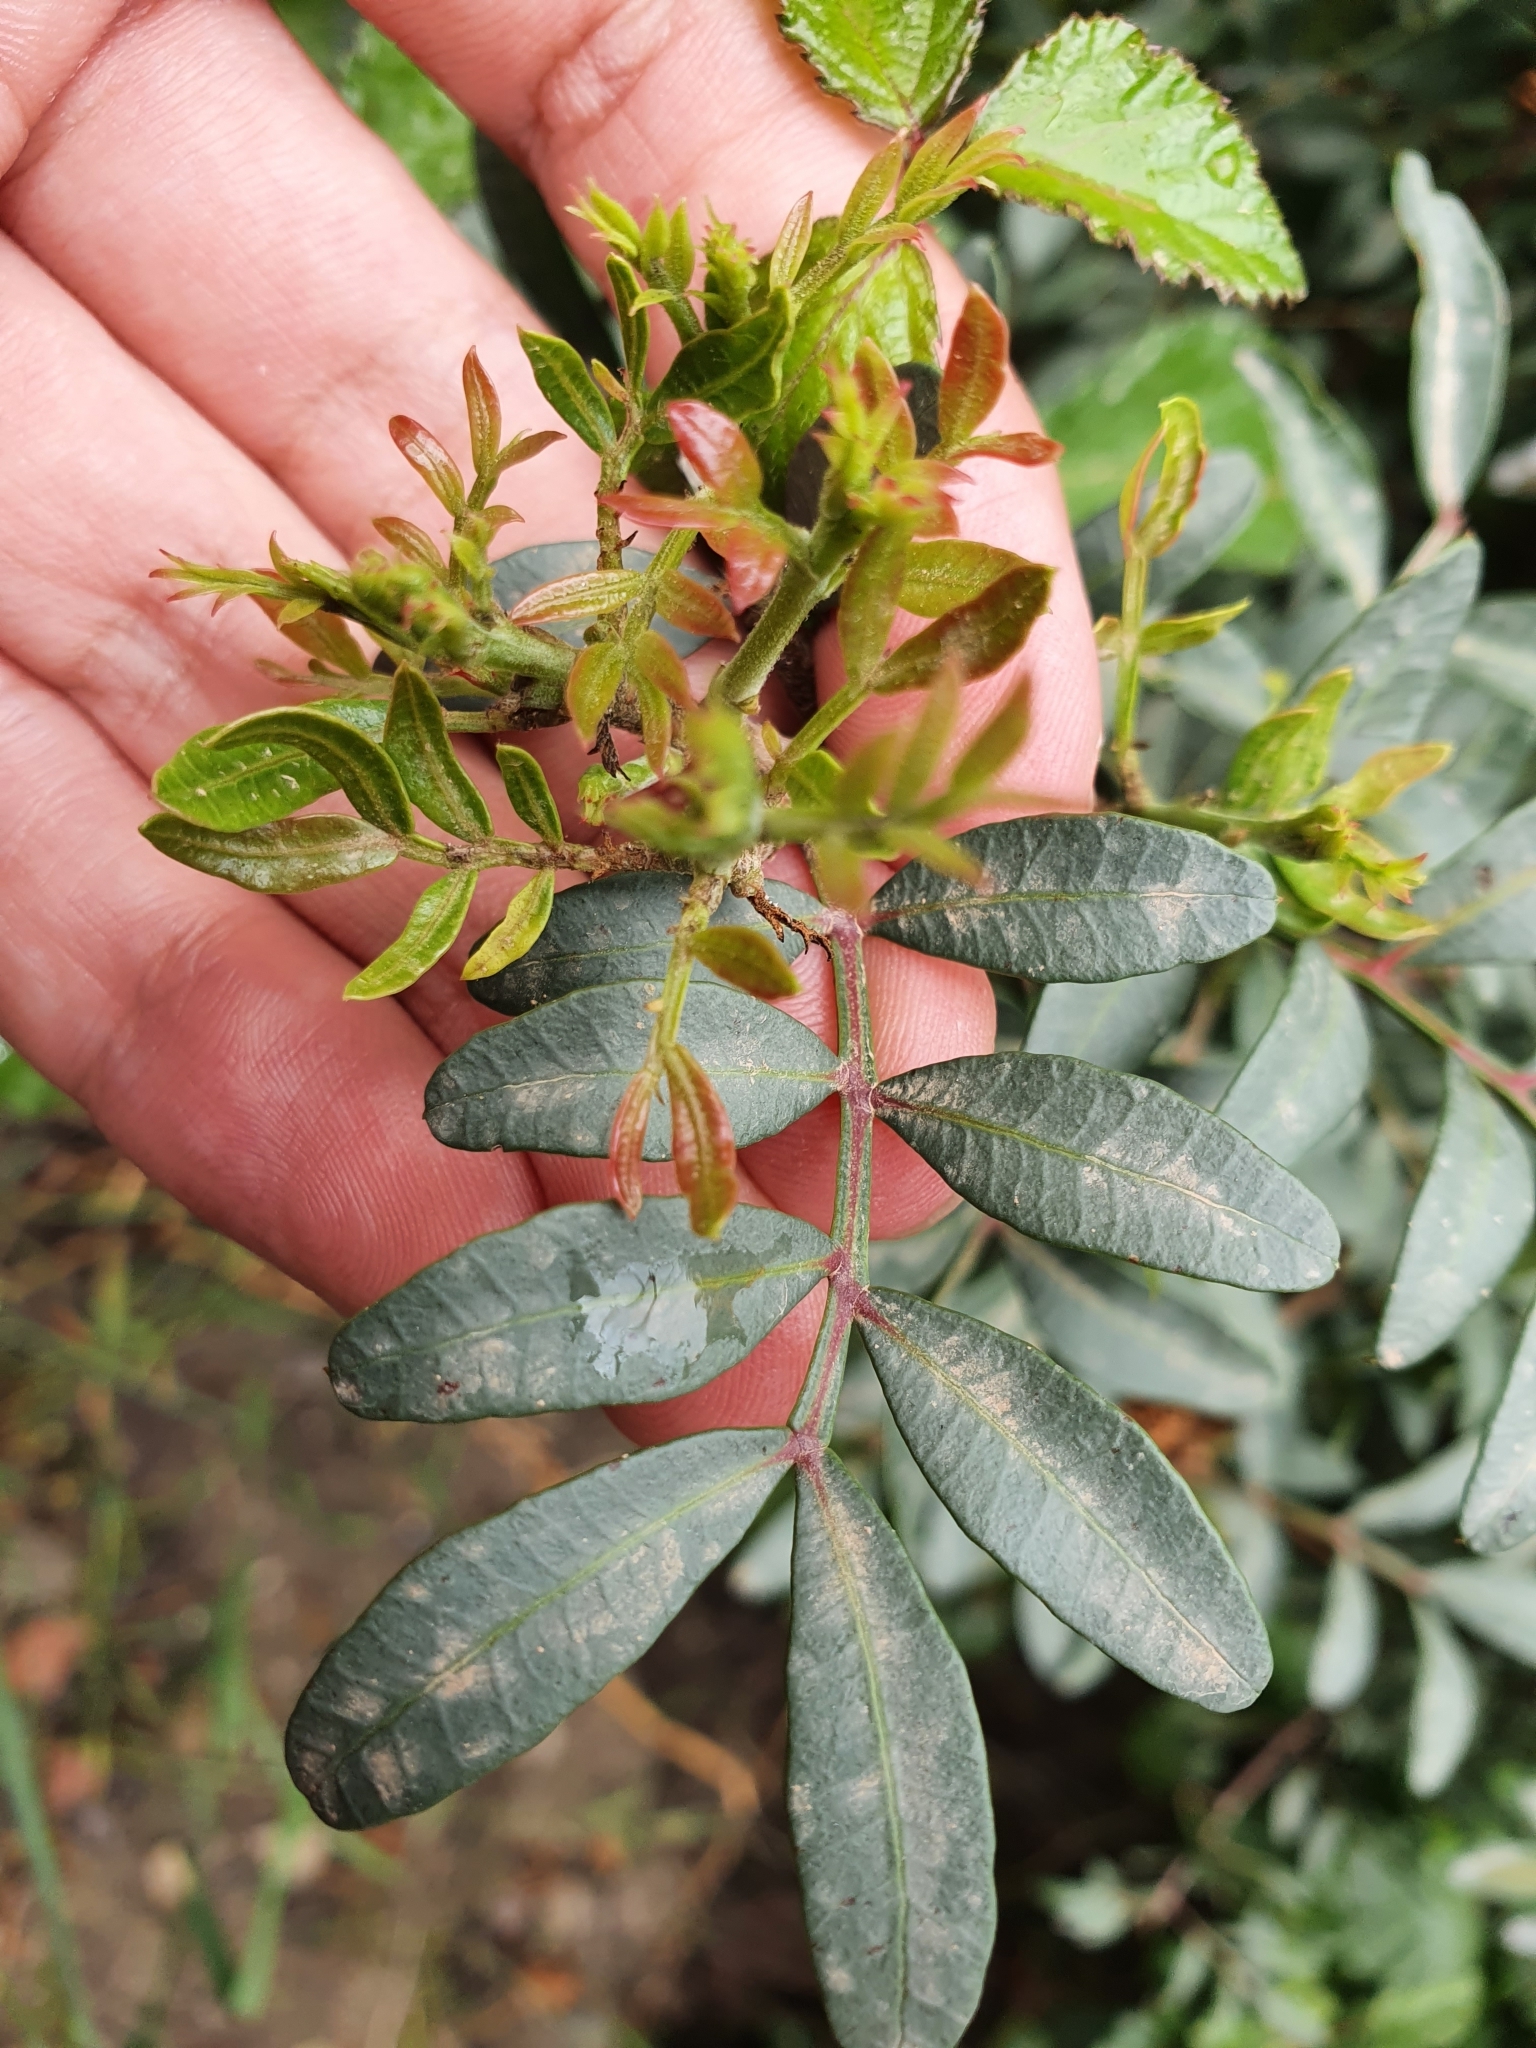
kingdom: Plantae
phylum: Tracheophyta
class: Magnoliopsida
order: Sapindales
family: Anacardiaceae
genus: Pistacia
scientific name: Pistacia lentiscus
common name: Lentisk
